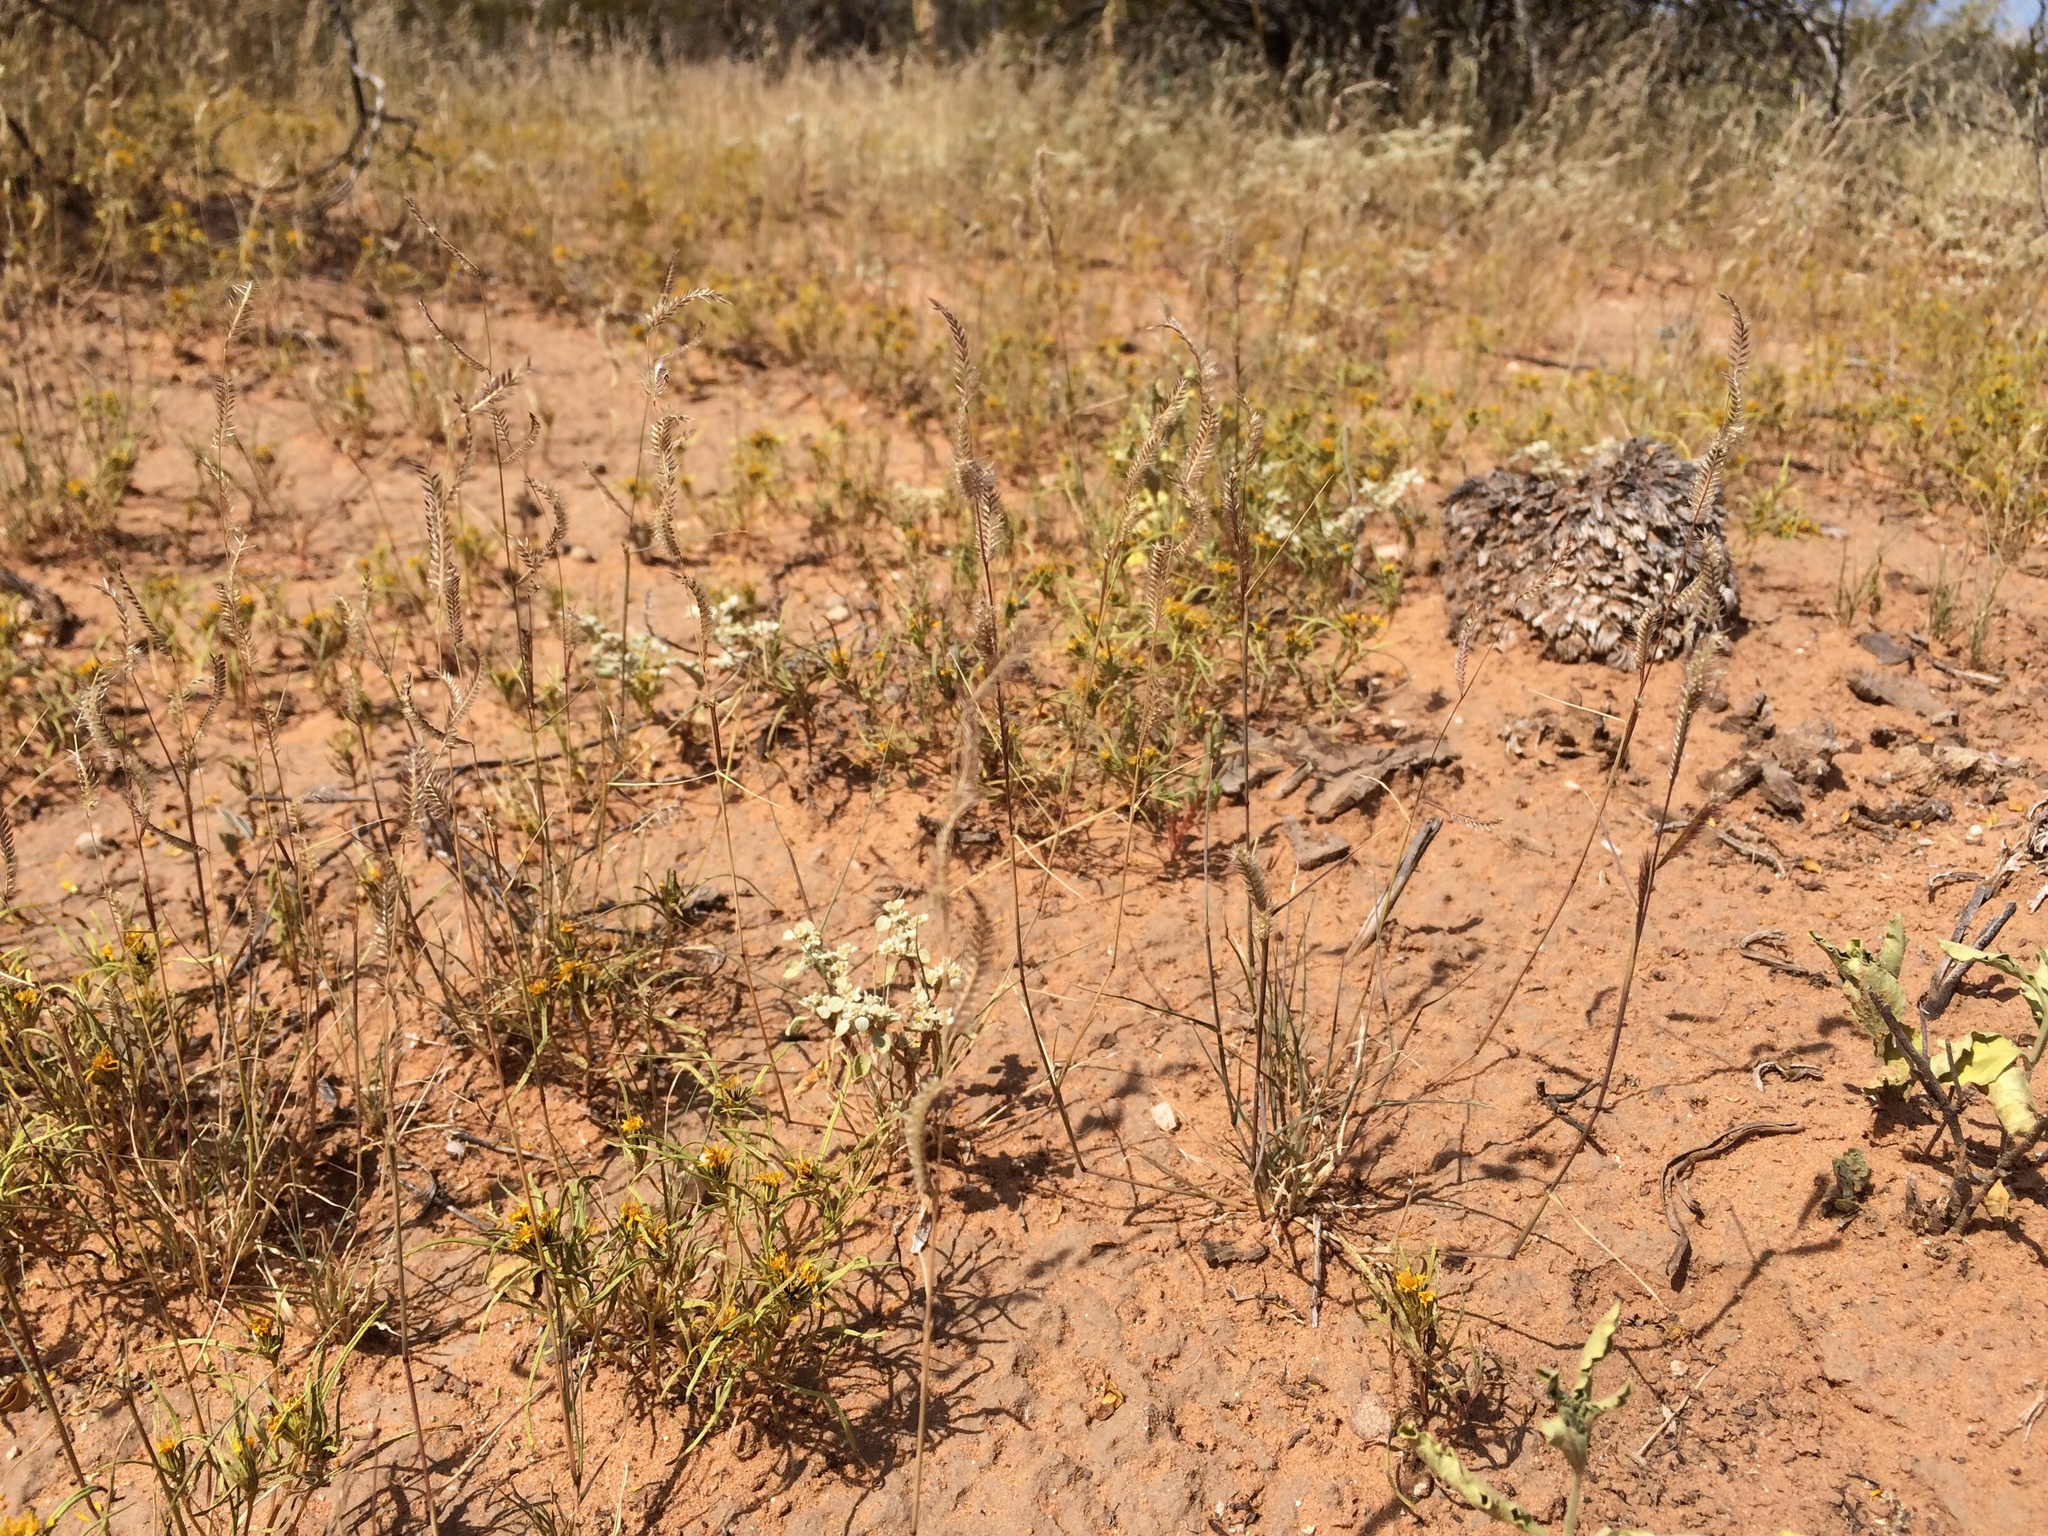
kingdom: Plantae
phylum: Tracheophyta
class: Liliopsida
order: Poales
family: Poaceae
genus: Bouteloua
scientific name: Bouteloua barbata
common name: Six-weeks grama
